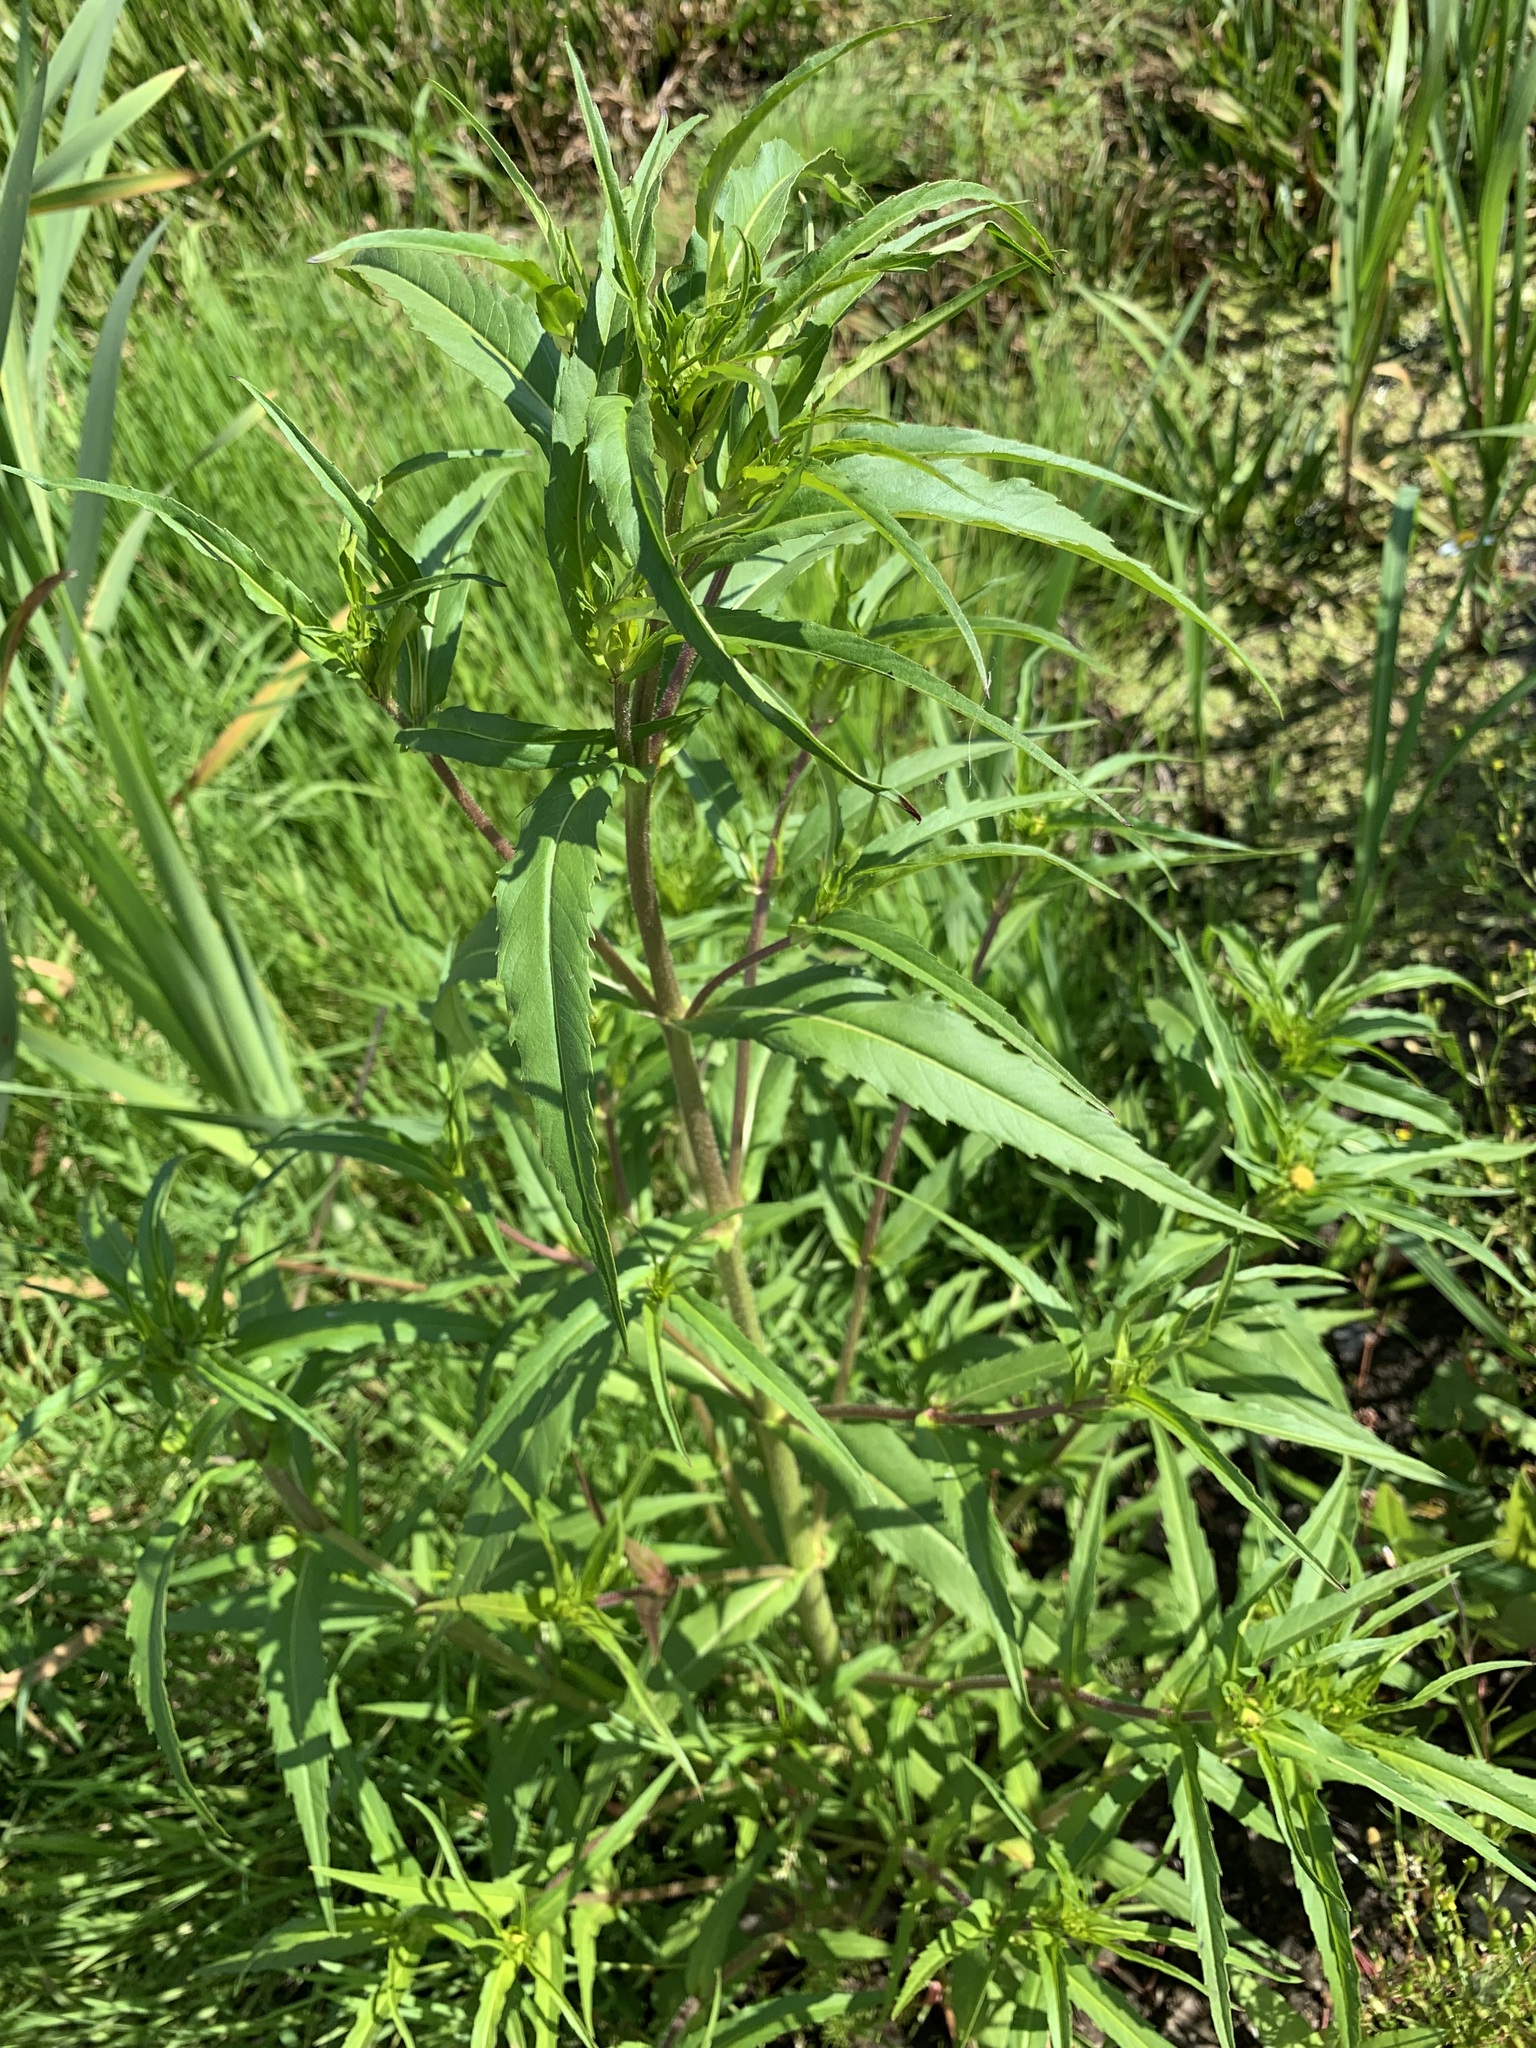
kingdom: Plantae
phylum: Tracheophyta
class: Magnoliopsida
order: Asterales
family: Asteraceae
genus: Bidens
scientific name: Bidens cernua
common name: Nodding bur-marigold
